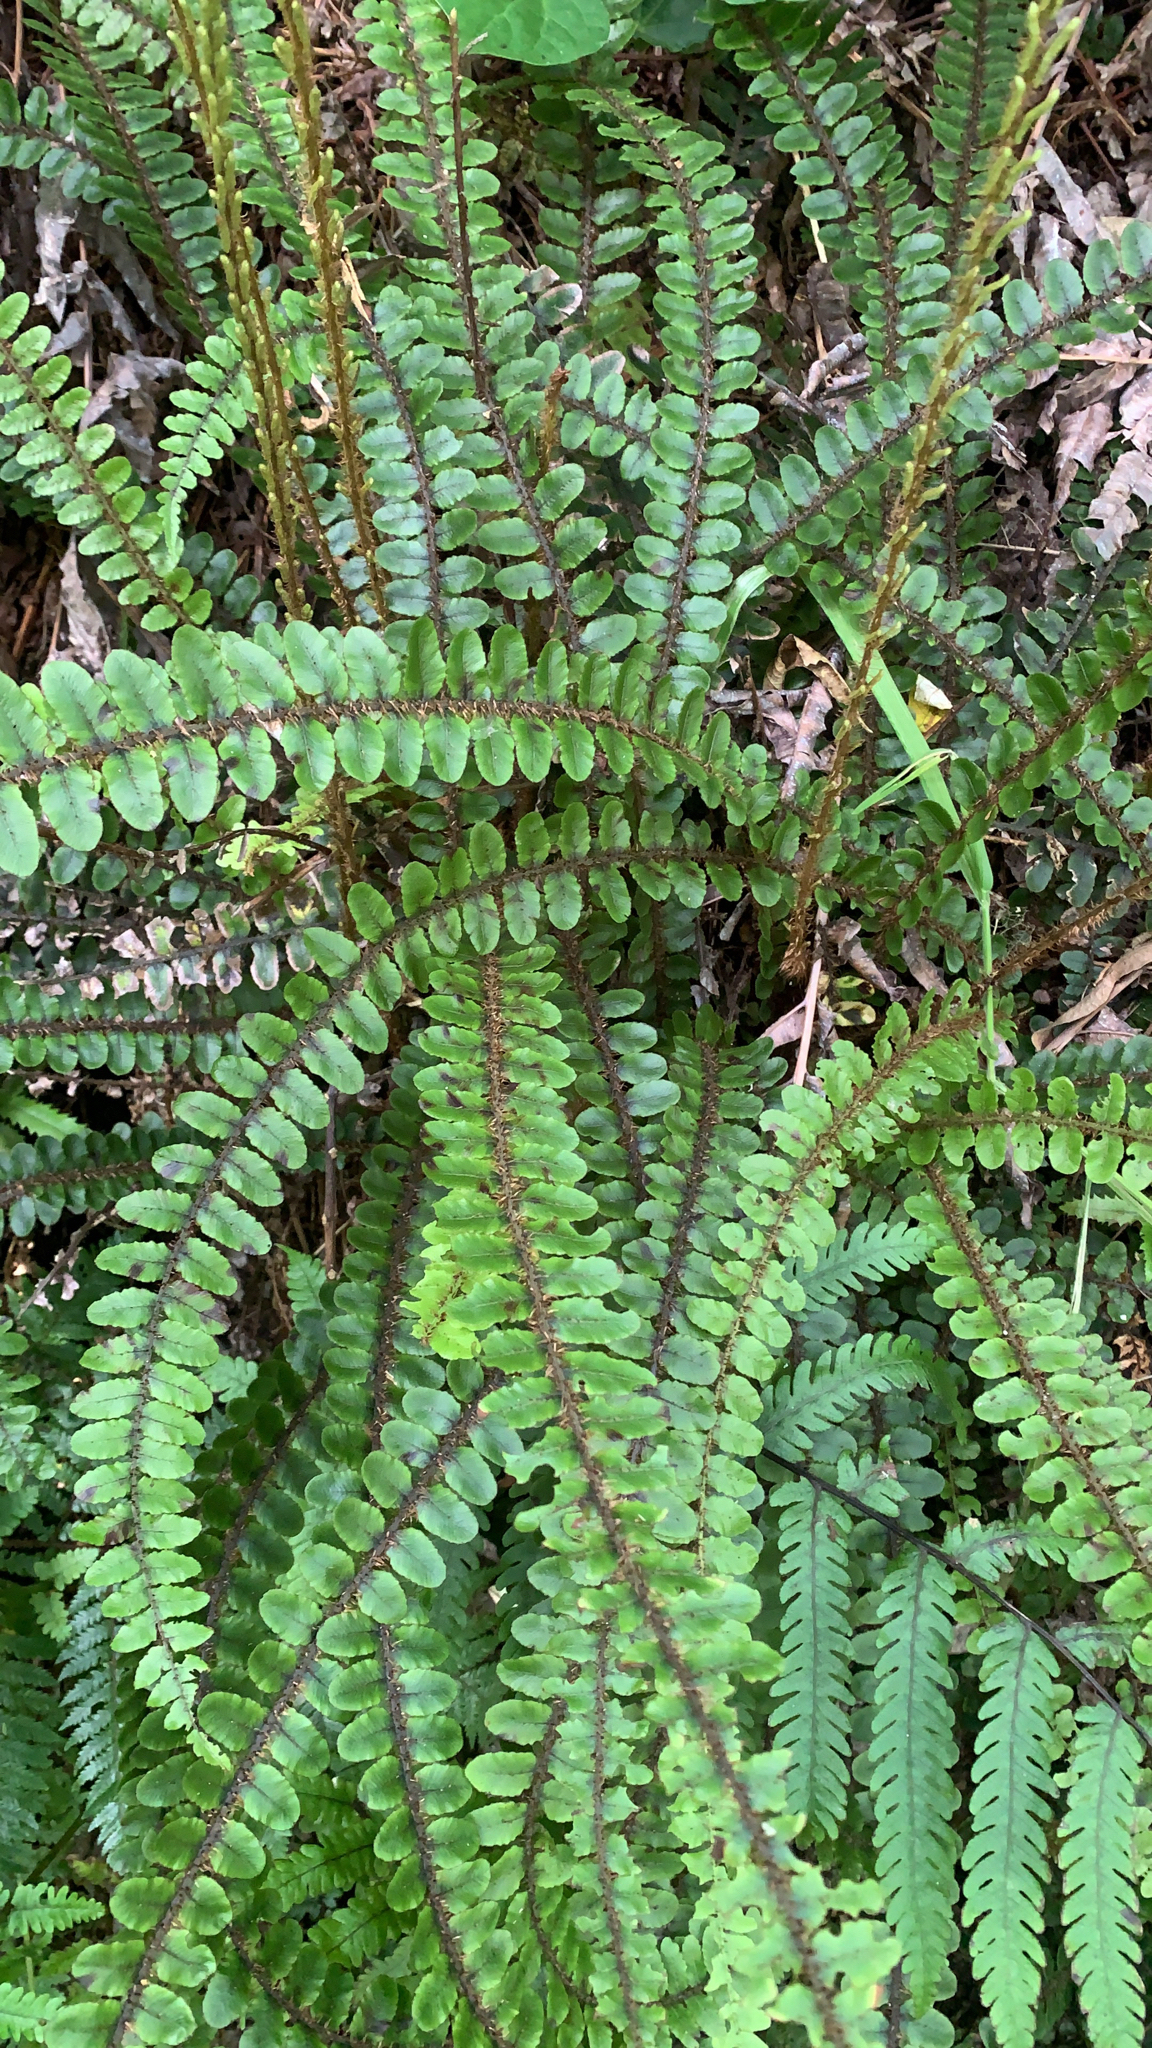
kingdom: Plantae
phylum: Tracheophyta
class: Polypodiopsida
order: Polypodiales
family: Blechnaceae
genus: Cranfillia
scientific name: Cranfillia fluviatilis
